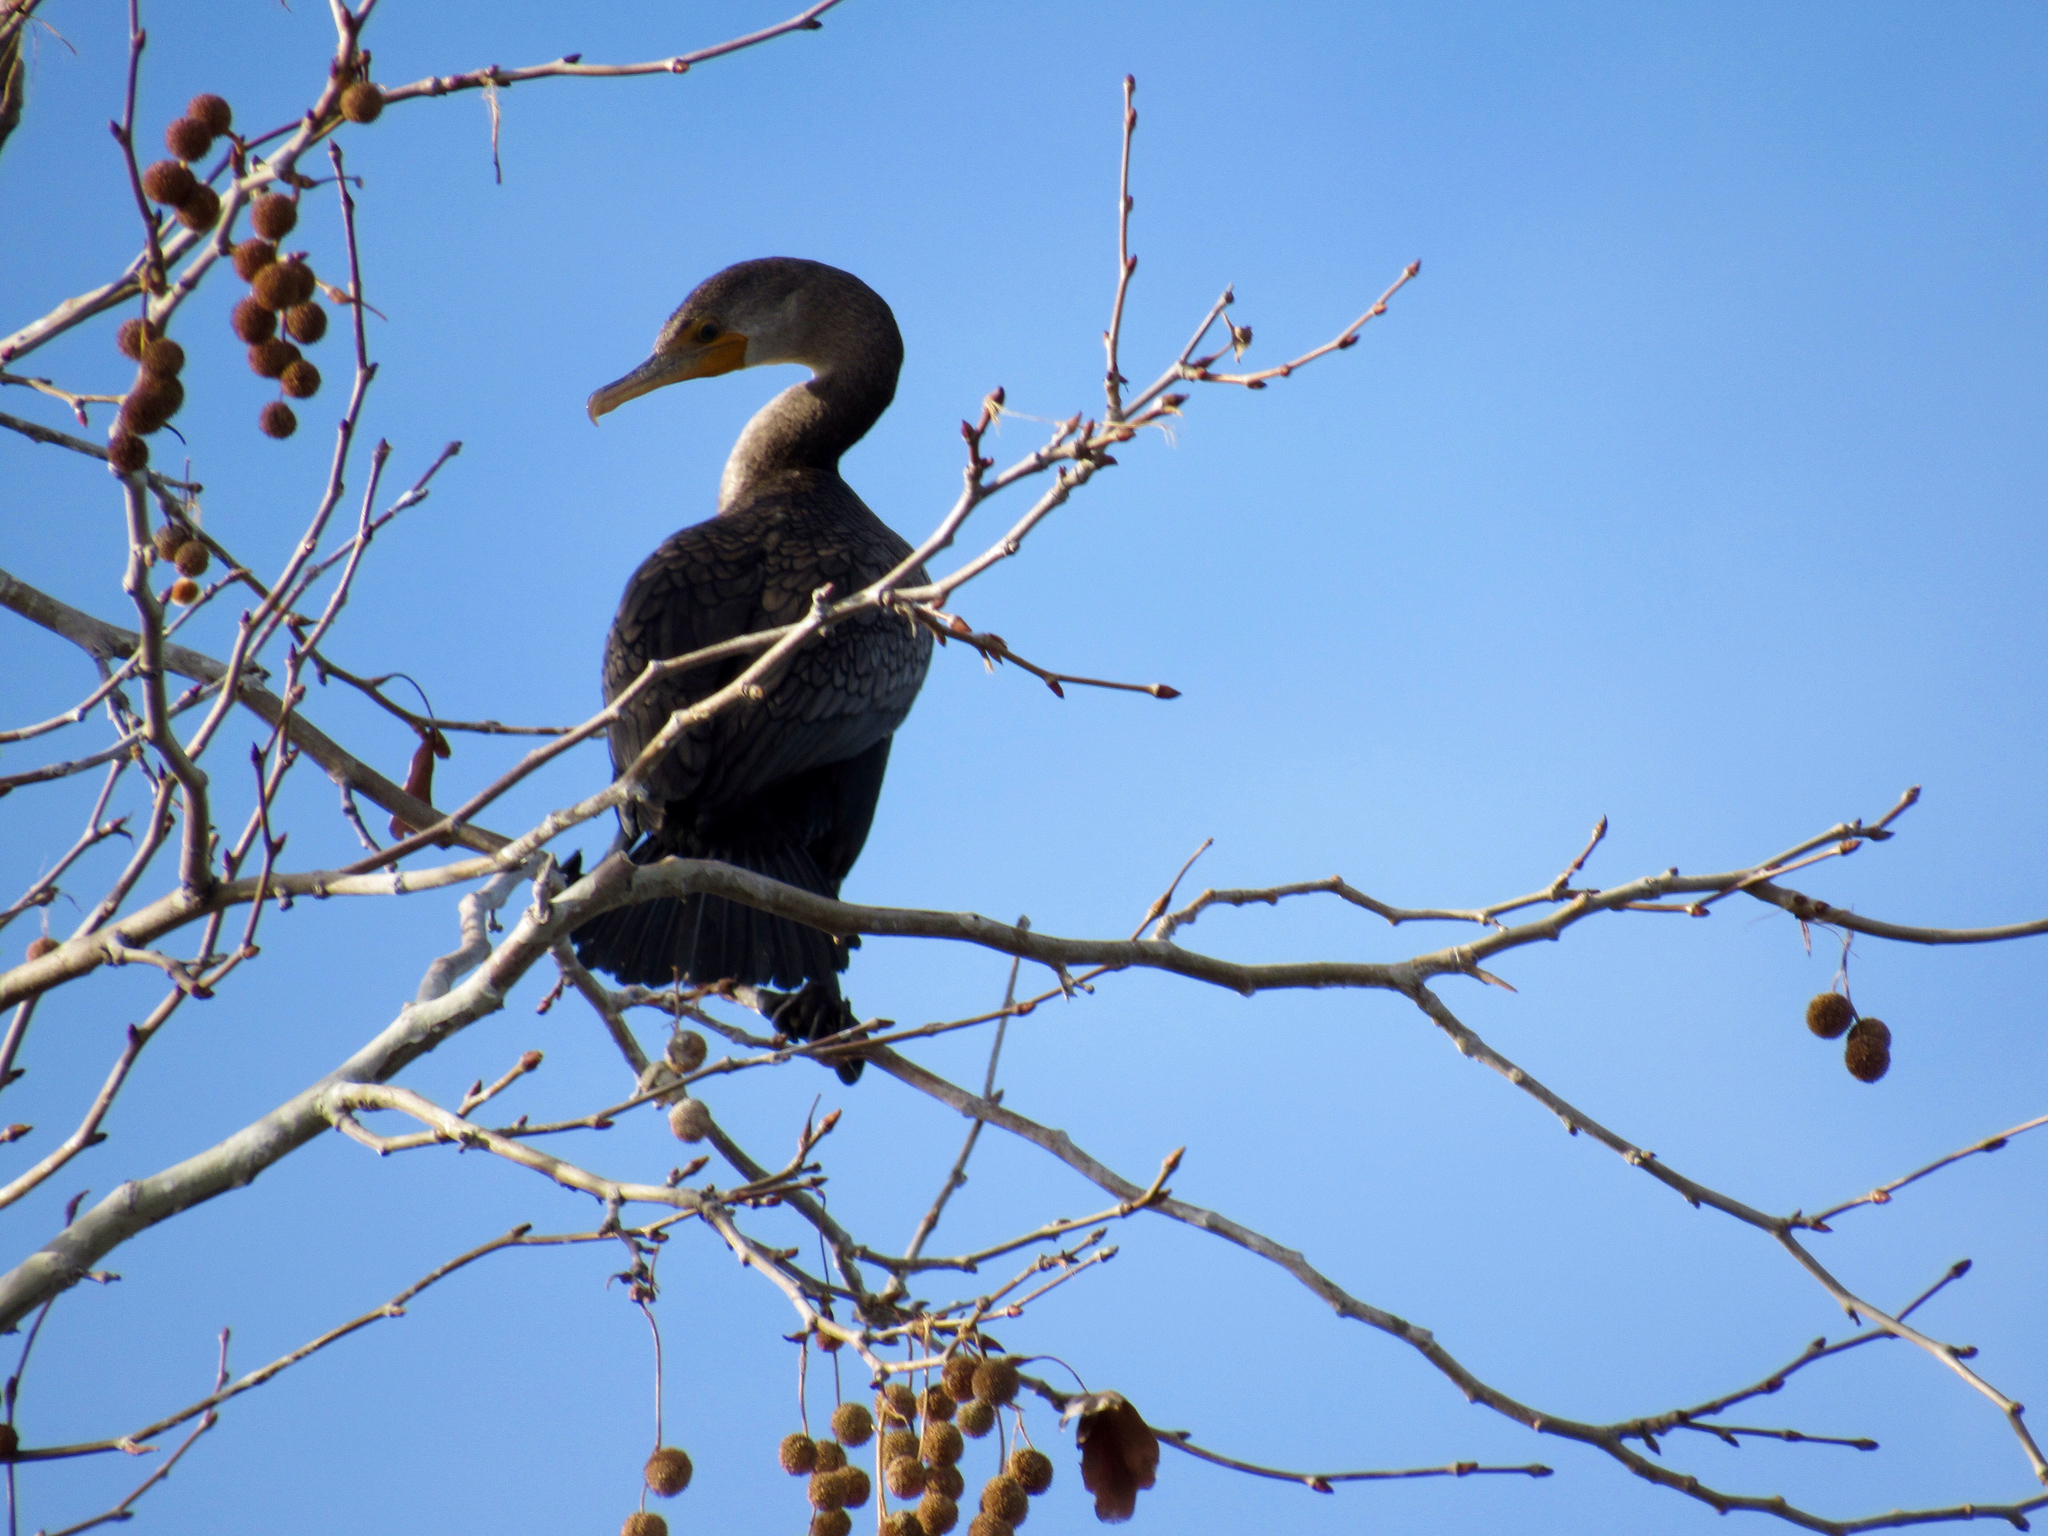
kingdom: Animalia
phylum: Chordata
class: Aves
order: Suliformes
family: Phalacrocoracidae
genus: Phalacrocorax
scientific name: Phalacrocorax auritus
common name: Double-crested cormorant
